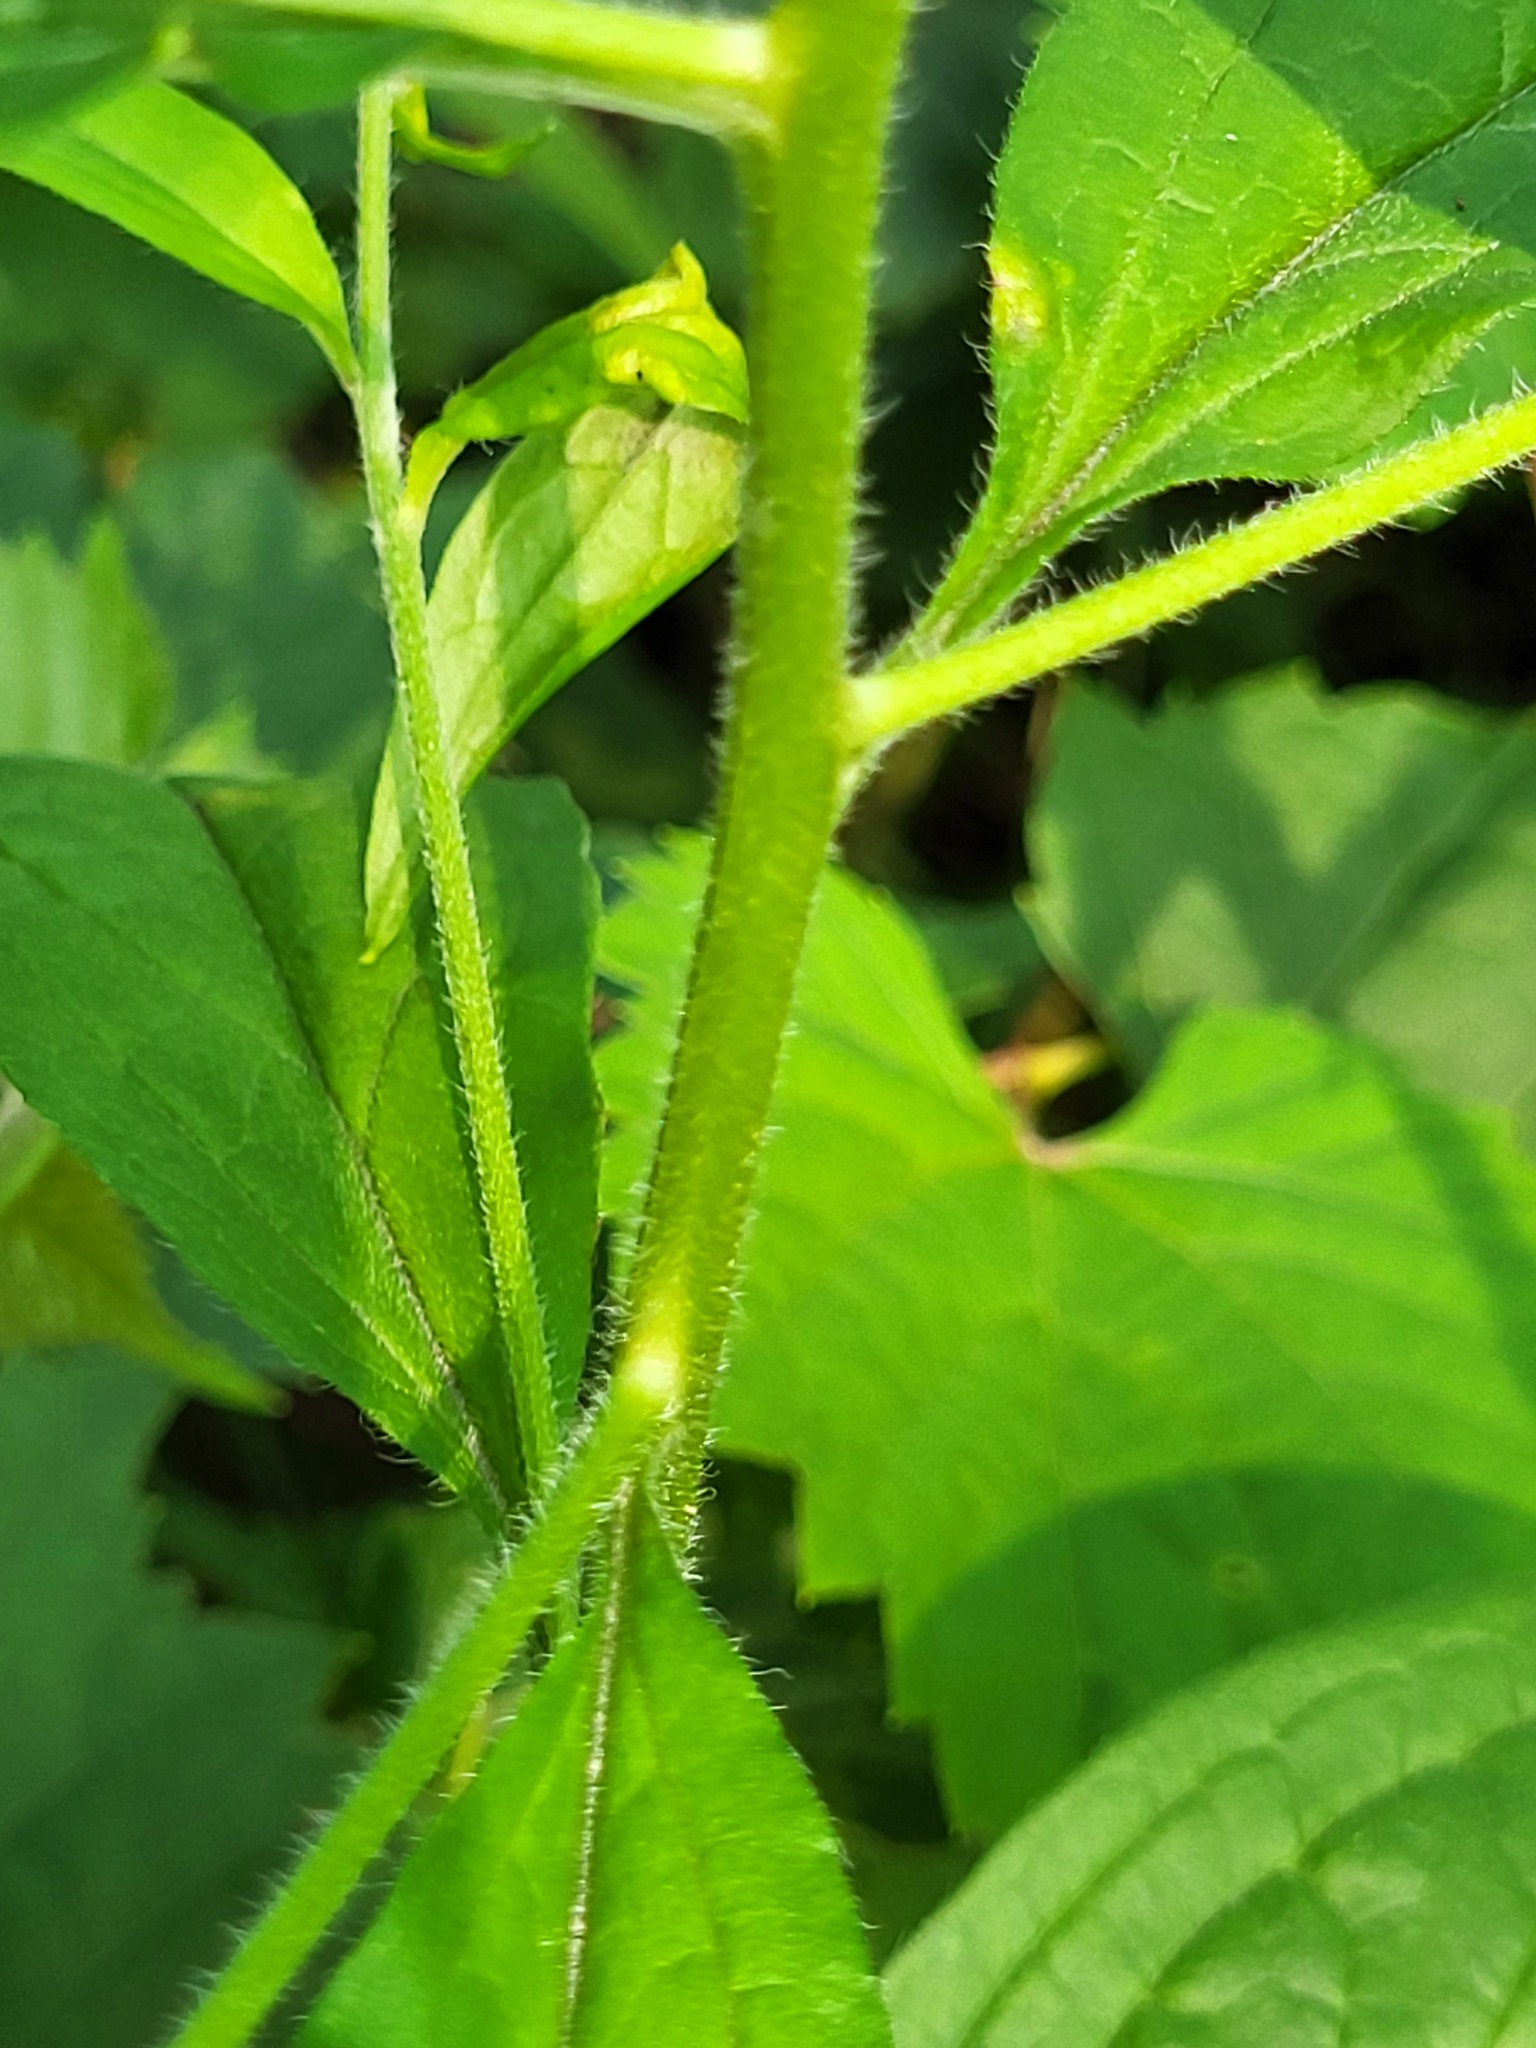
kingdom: Plantae
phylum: Tracheophyta
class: Magnoliopsida
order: Boraginales
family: Boraginaceae
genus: Hackelia
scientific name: Hackelia virginiana
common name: Beggar's-lice
